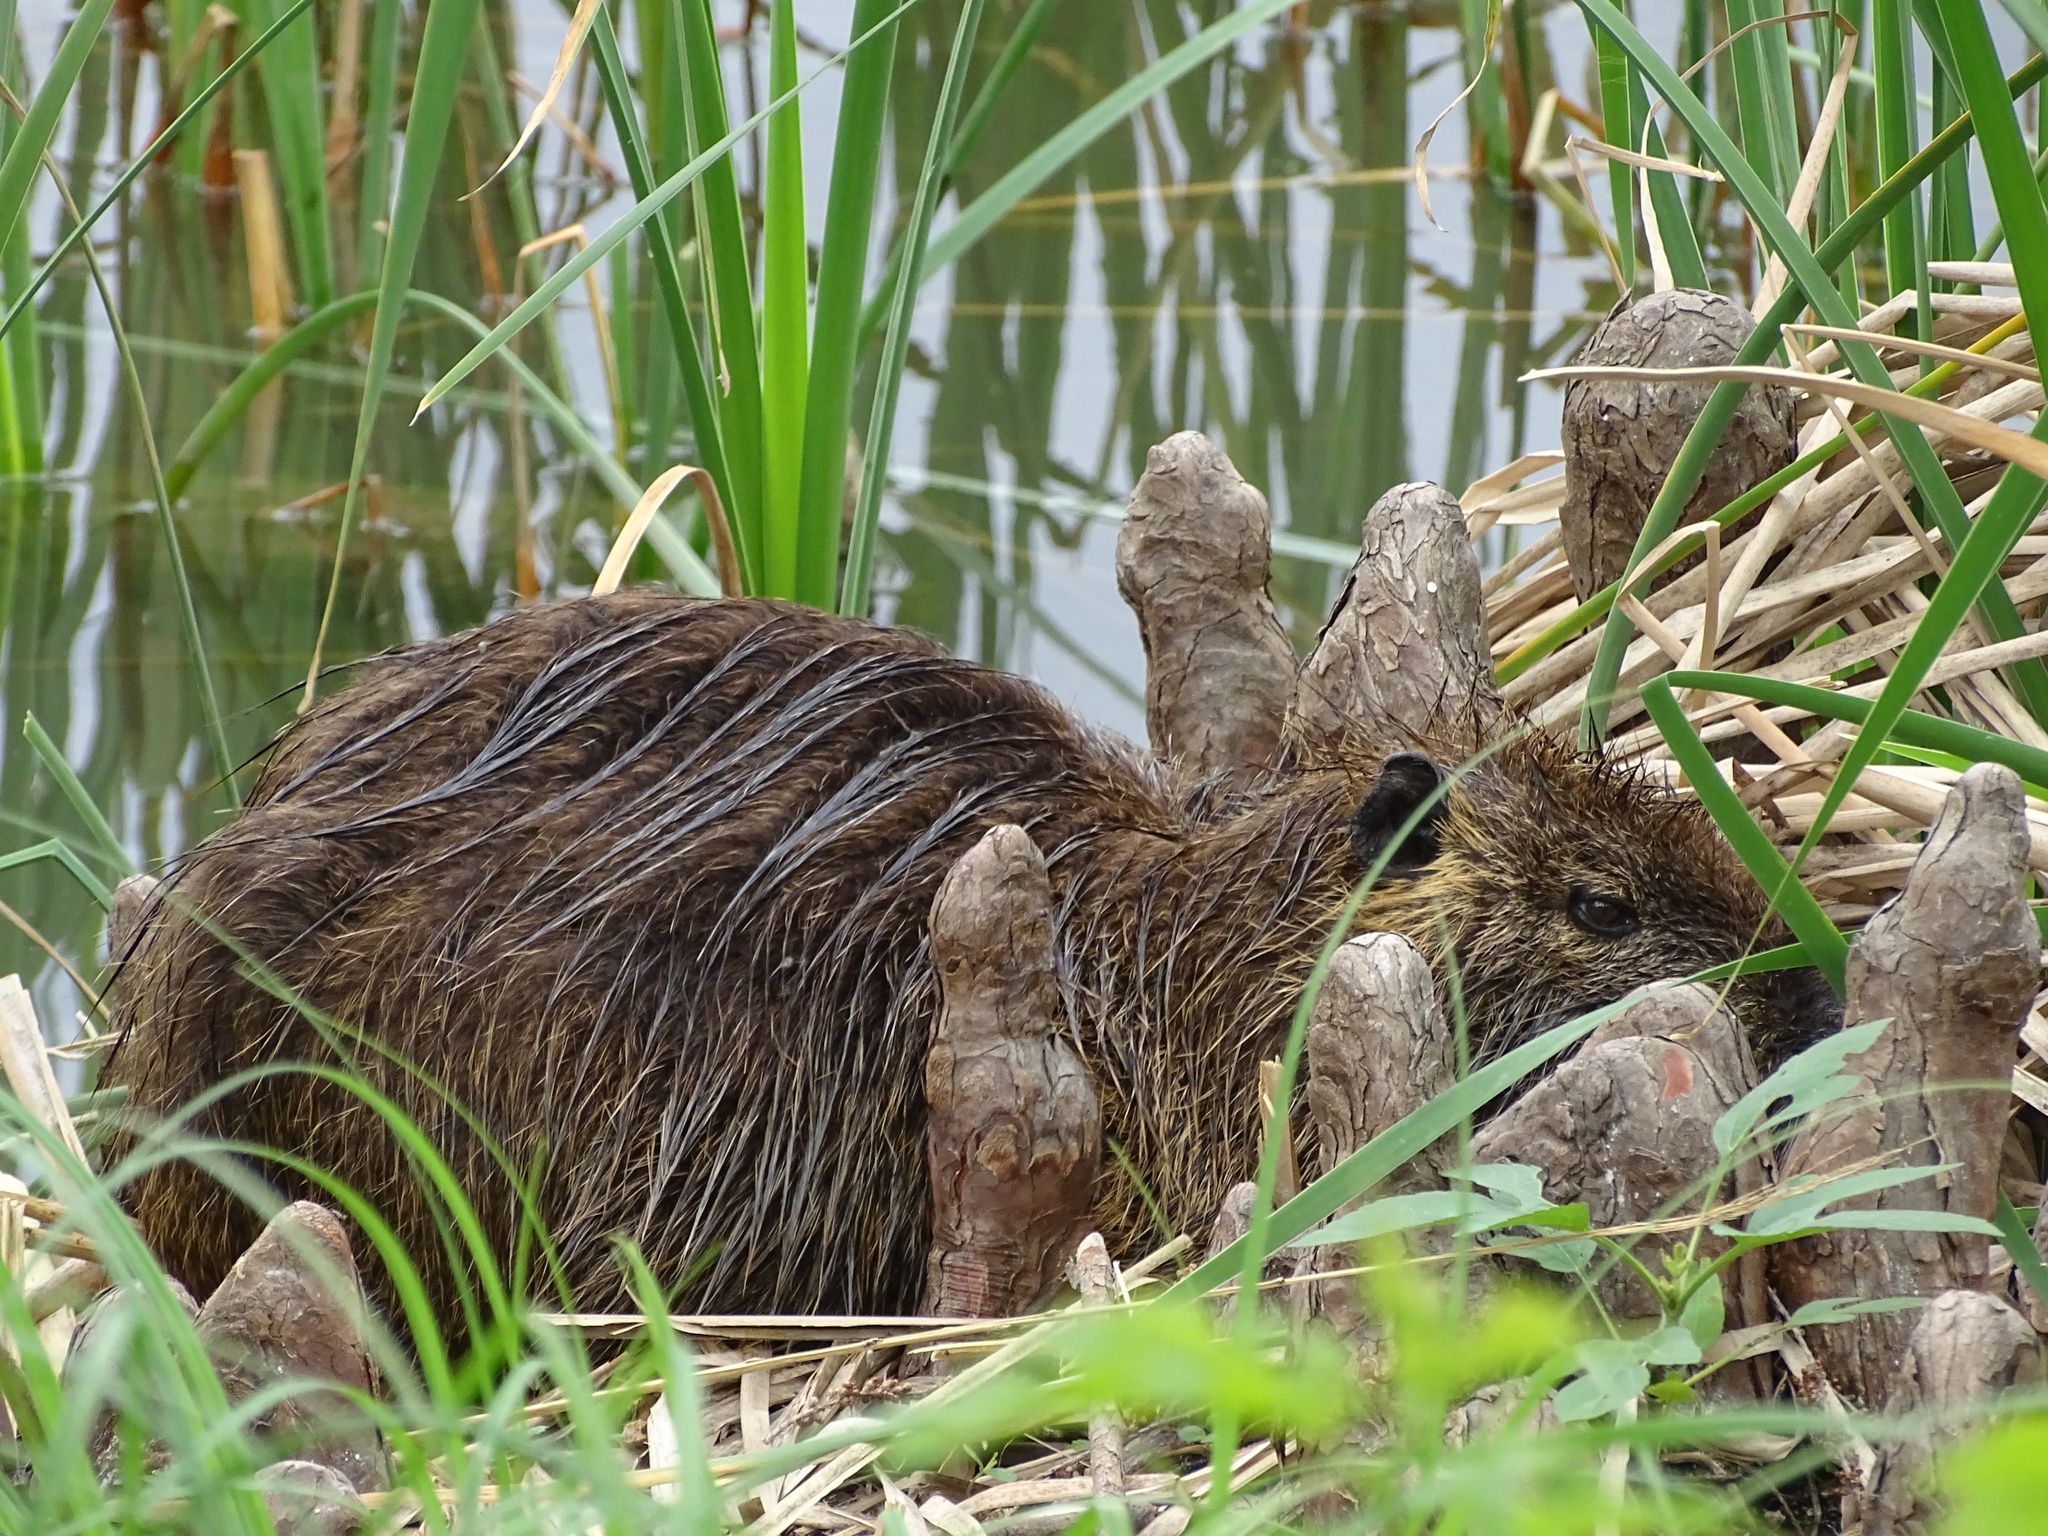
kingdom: Animalia
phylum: Chordata
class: Mammalia
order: Rodentia
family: Myocastoridae
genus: Myocastor
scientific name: Myocastor coypus
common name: Coypu
